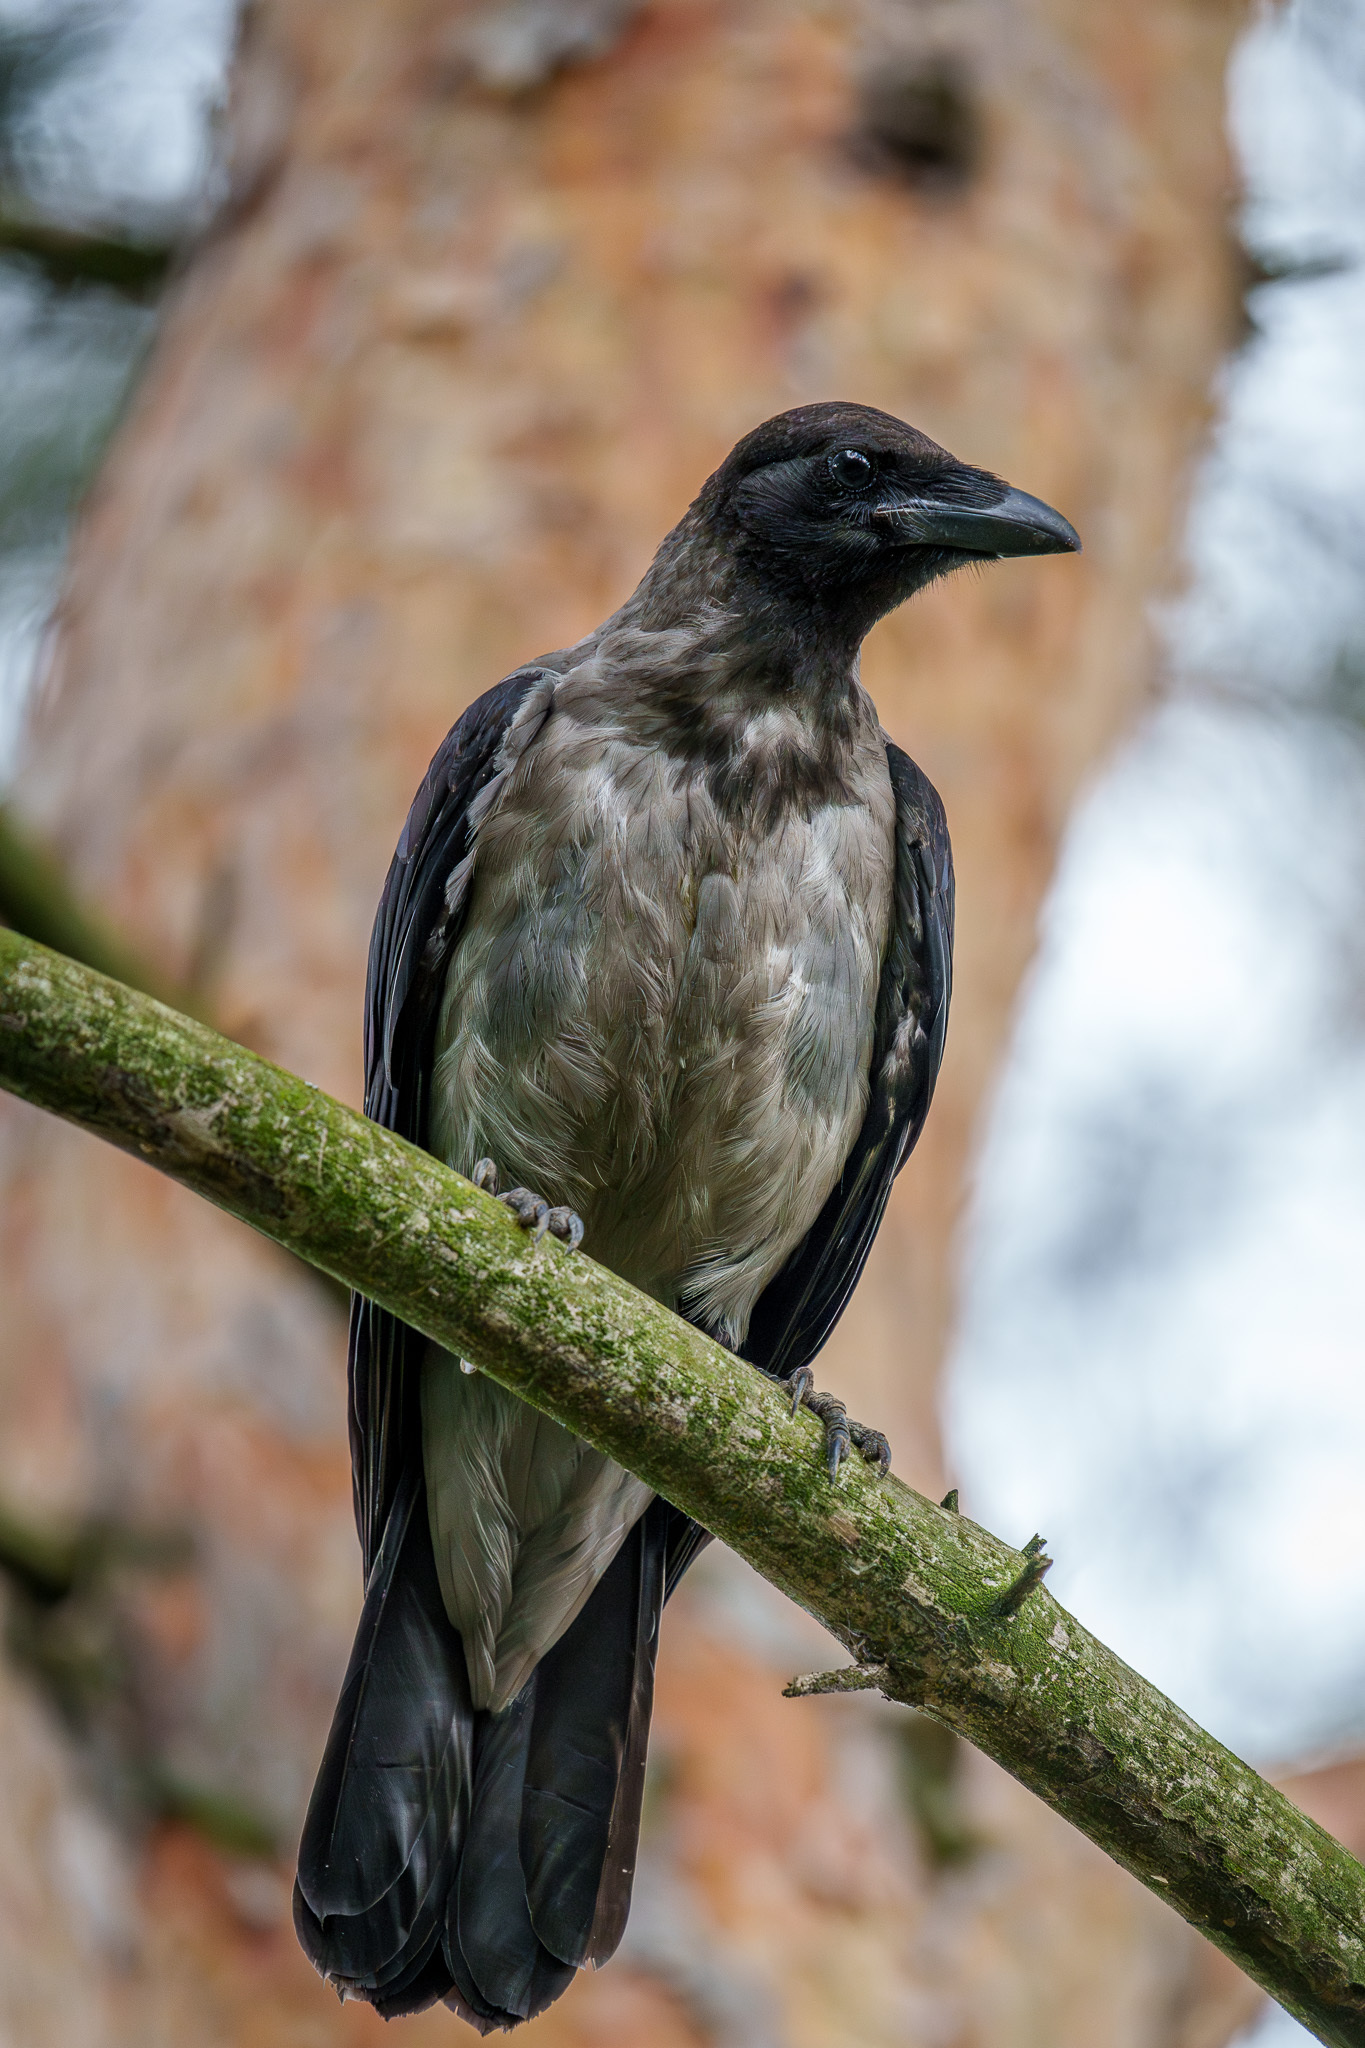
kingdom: Animalia
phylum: Chordata
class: Aves
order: Passeriformes
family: Corvidae
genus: Corvus
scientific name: Corvus cornix
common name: Hooded crow
